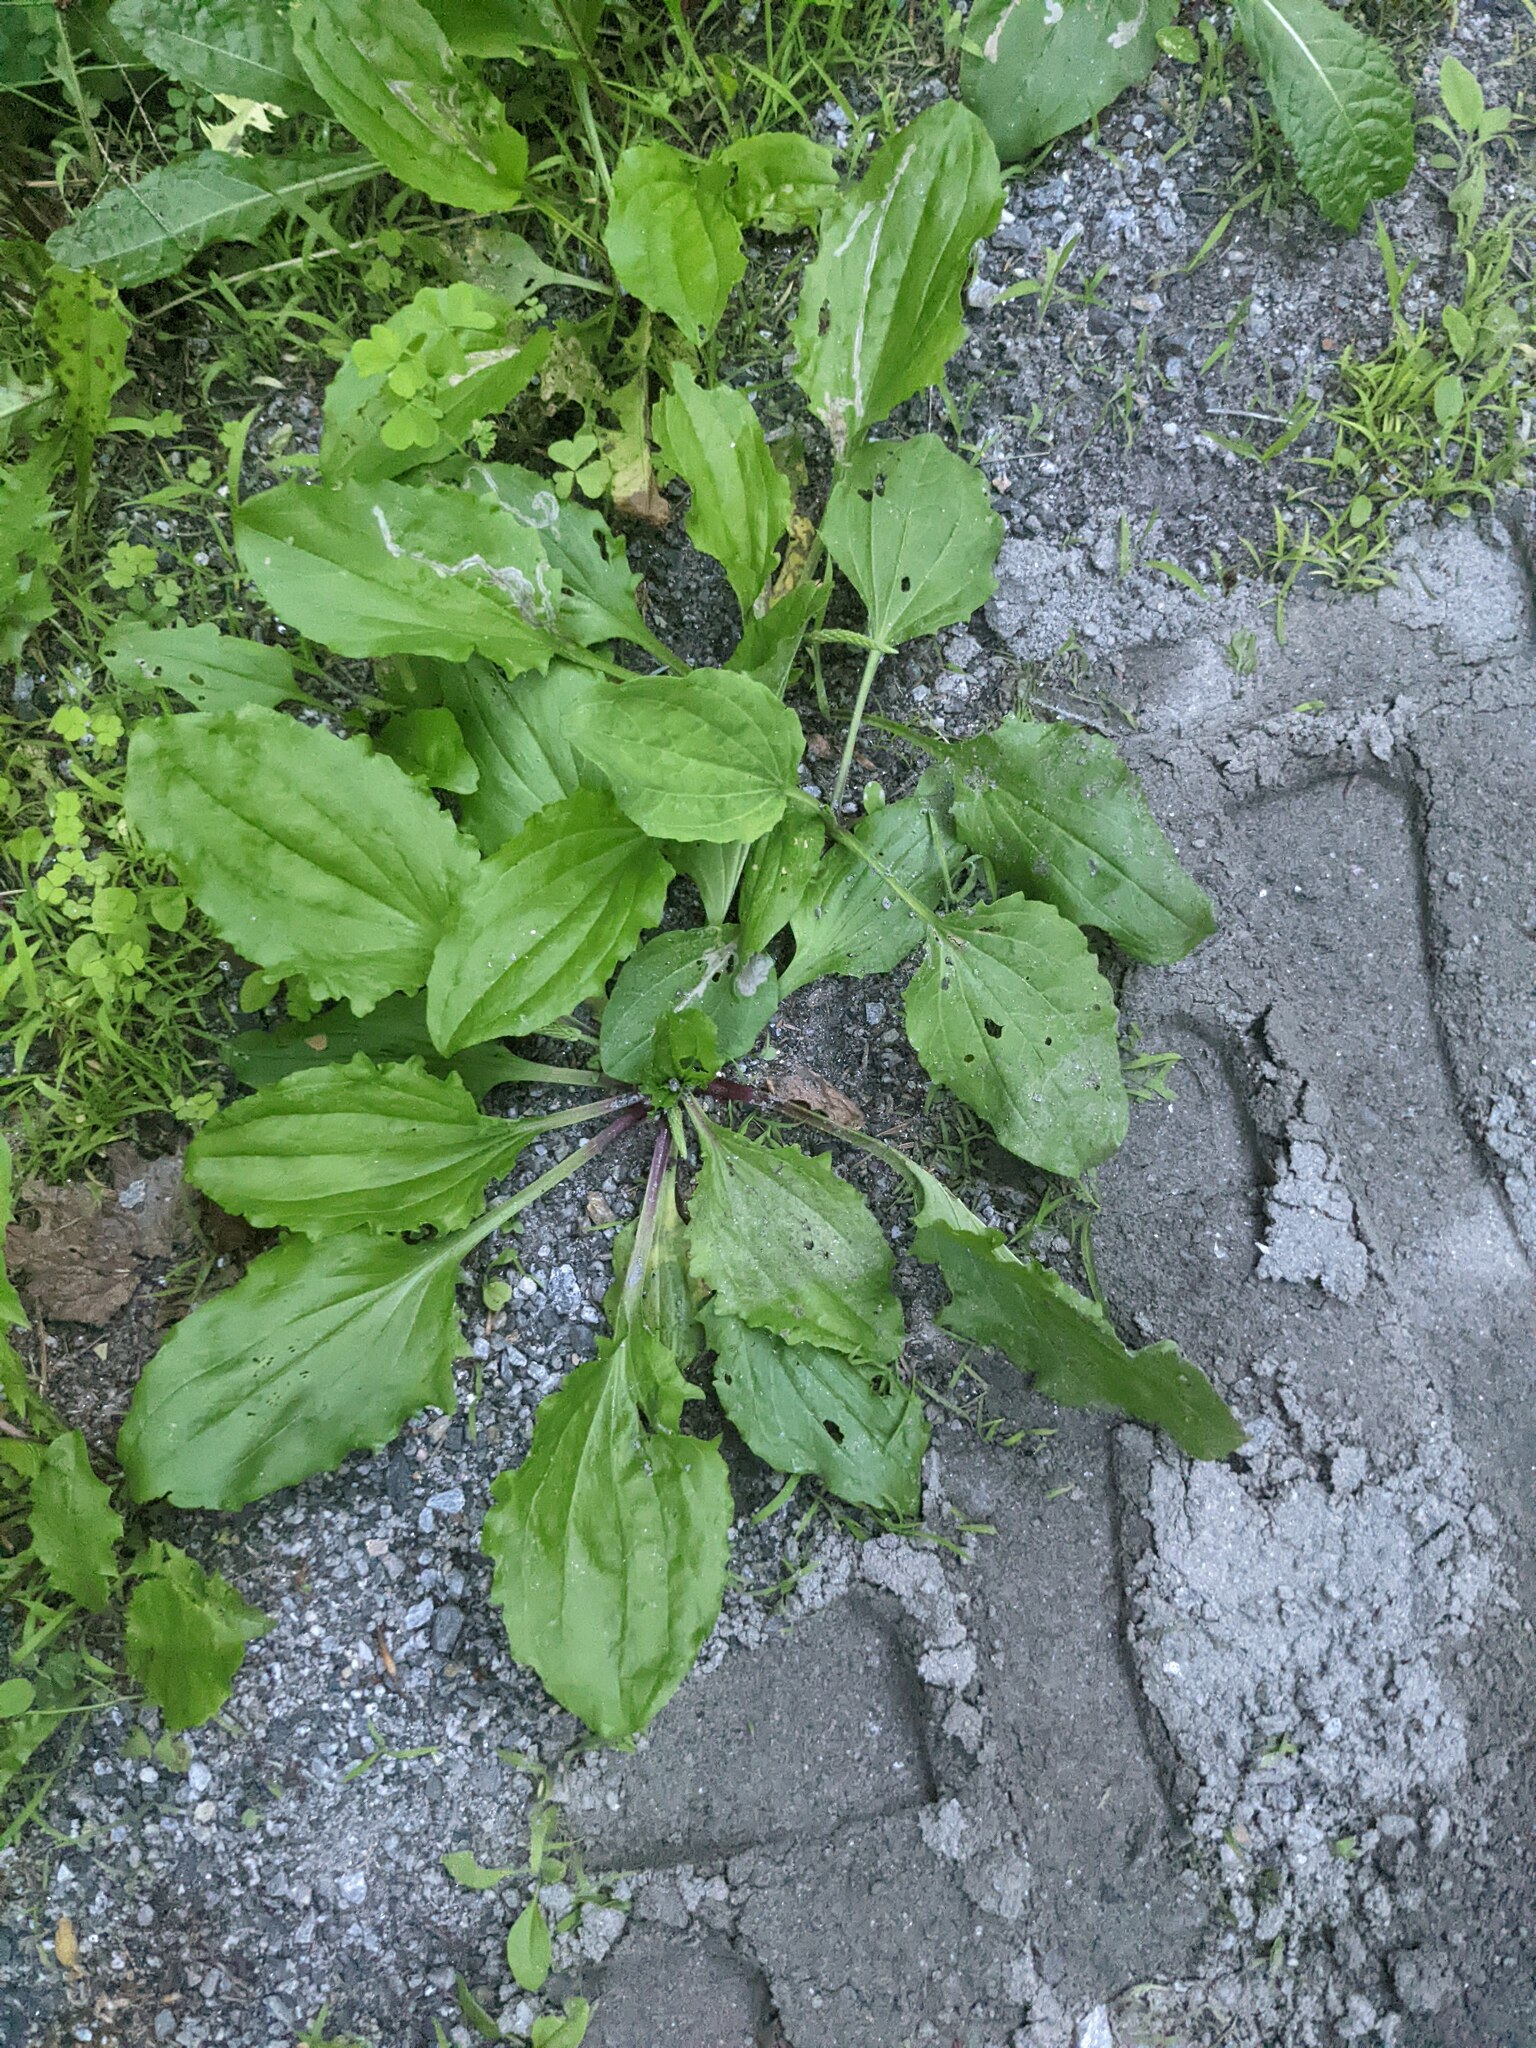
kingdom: Plantae
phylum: Tracheophyta
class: Magnoliopsida
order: Lamiales
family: Plantaginaceae
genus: Plantago
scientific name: Plantago rugelii
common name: American plantain
